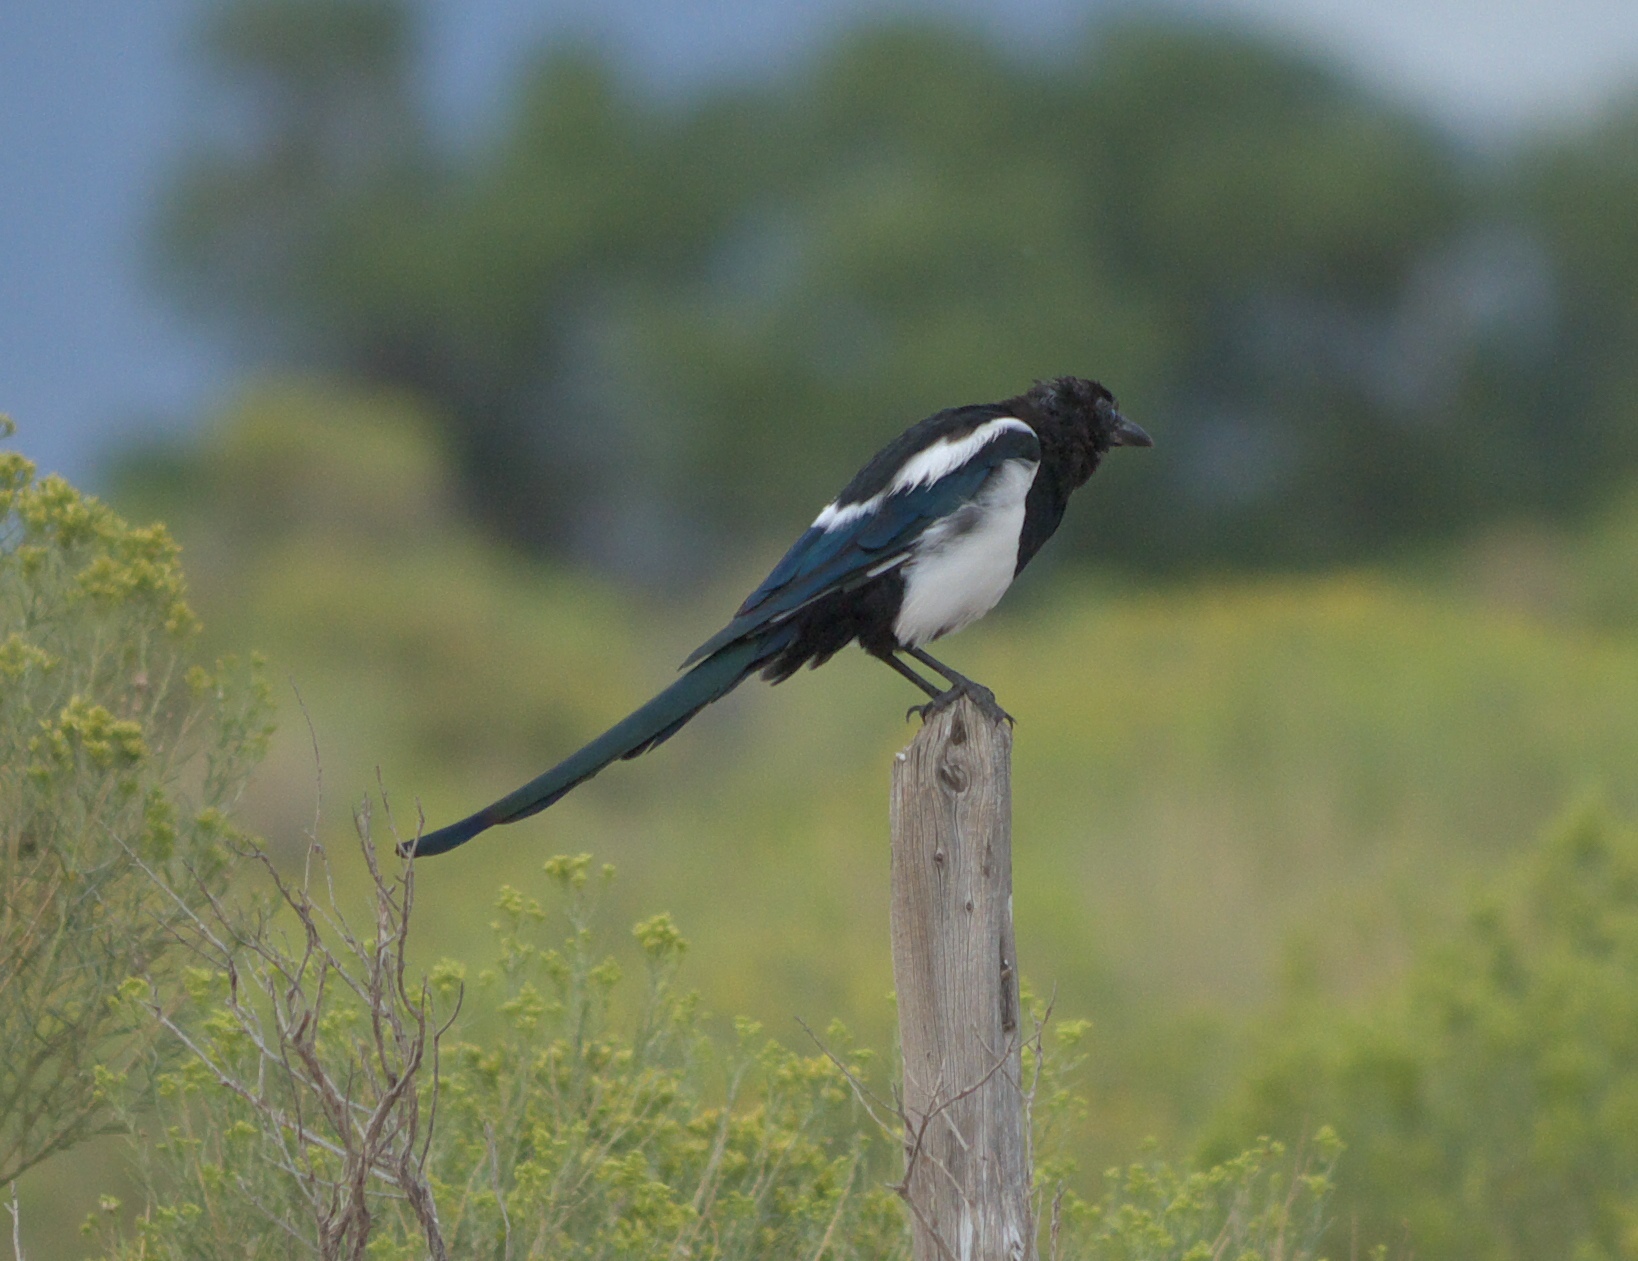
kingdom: Animalia
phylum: Chordata
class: Aves
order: Passeriformes
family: Corvidae
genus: Pica
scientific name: Pica hudsonia
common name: Black-billed magpie
